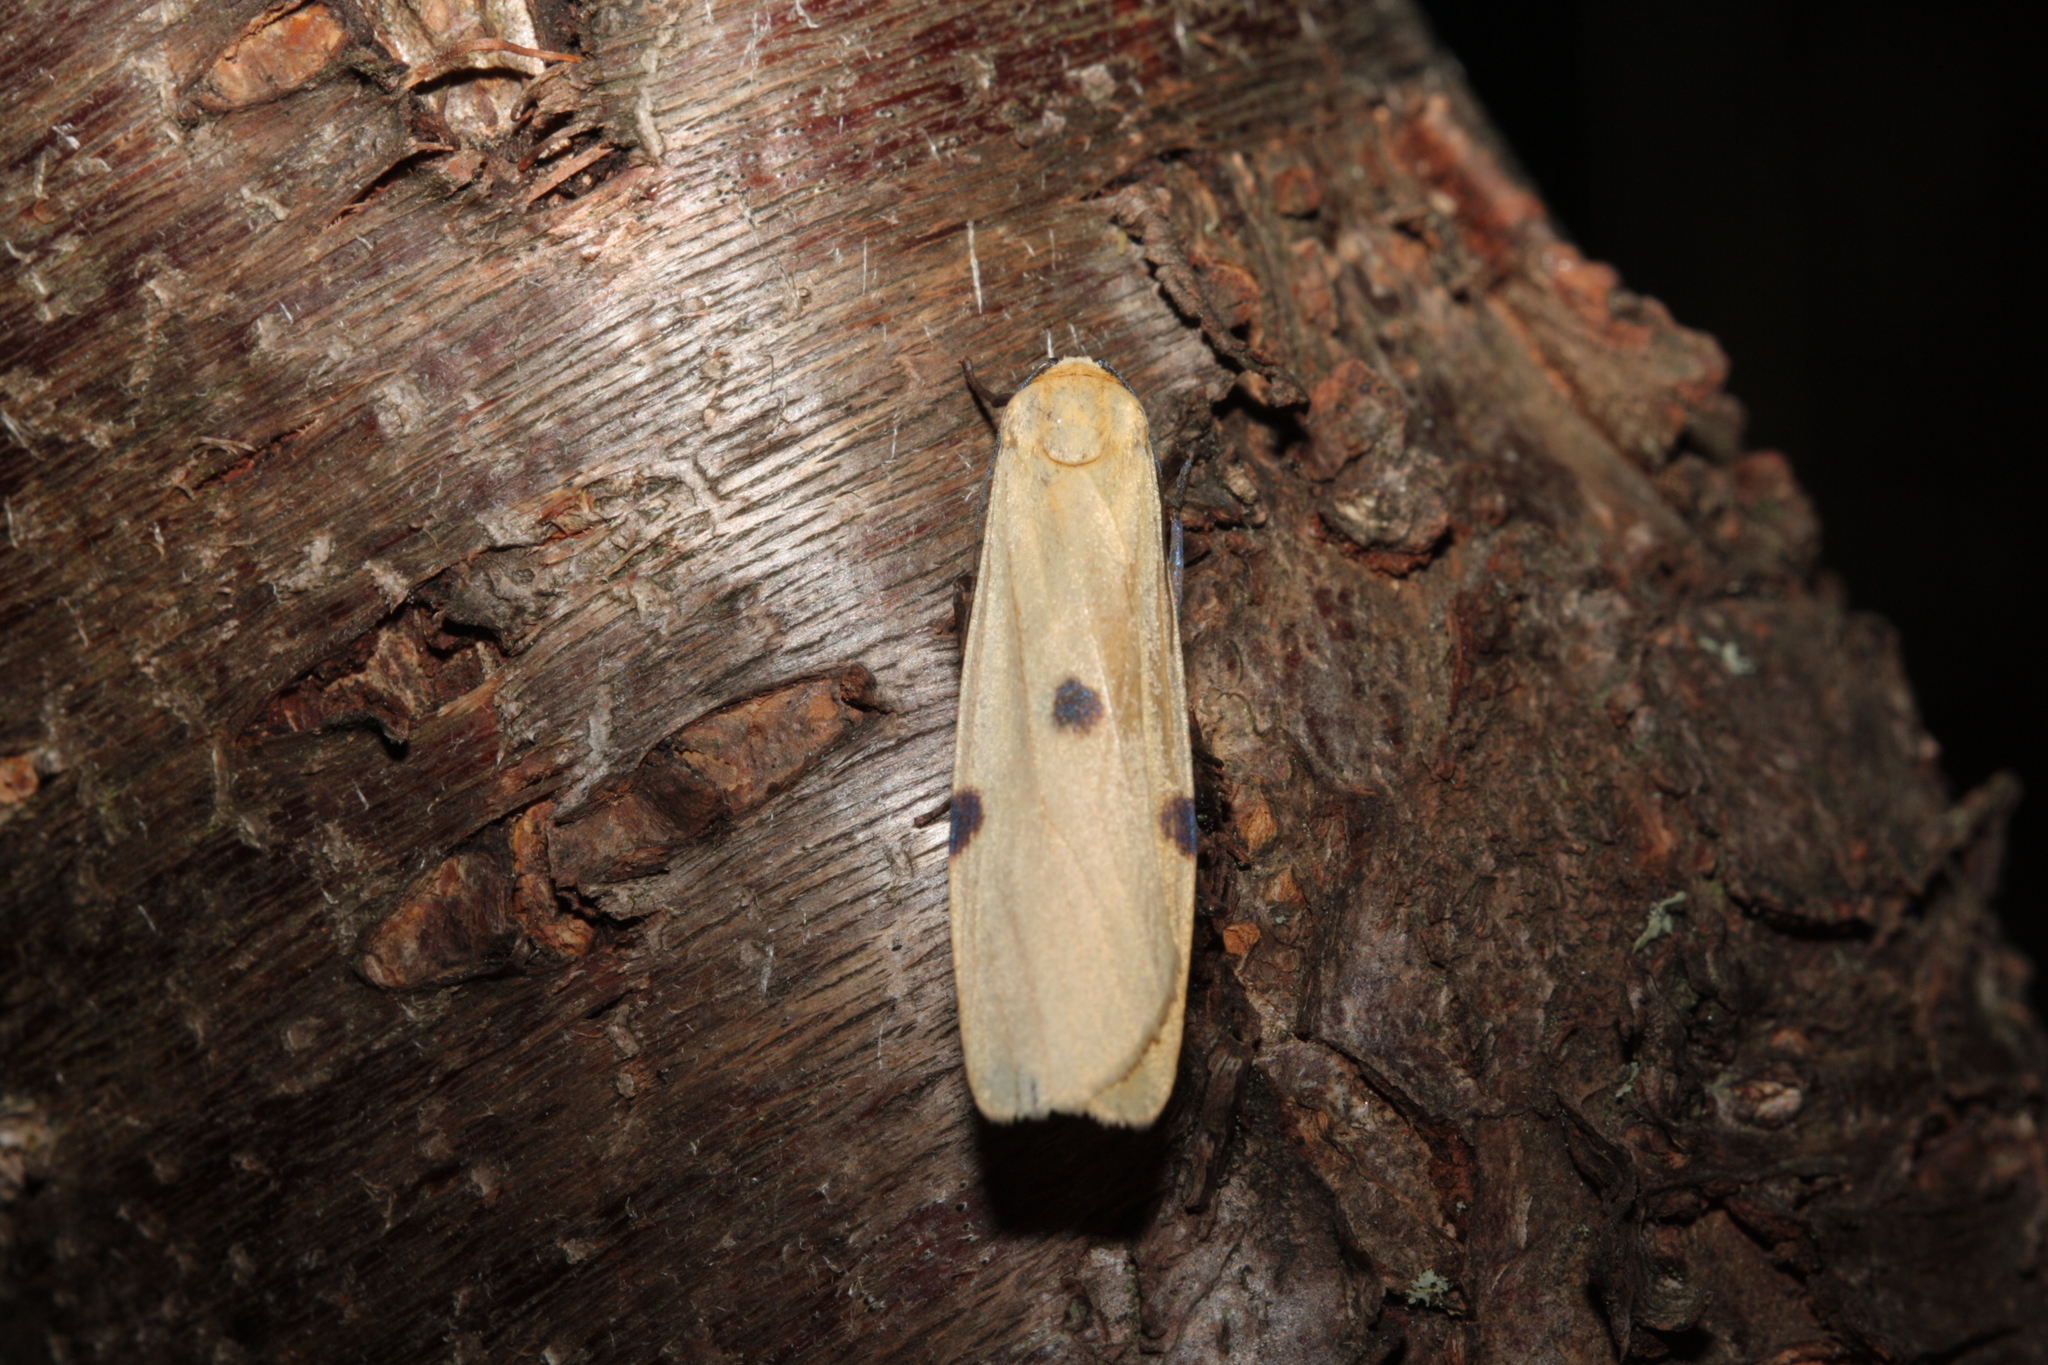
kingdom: Animalia
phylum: Arthropoda
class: Insecta
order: Lepidoptera
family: Erebidae
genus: Lithosia
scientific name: Lithosia quadra
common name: Four-spotted footman
